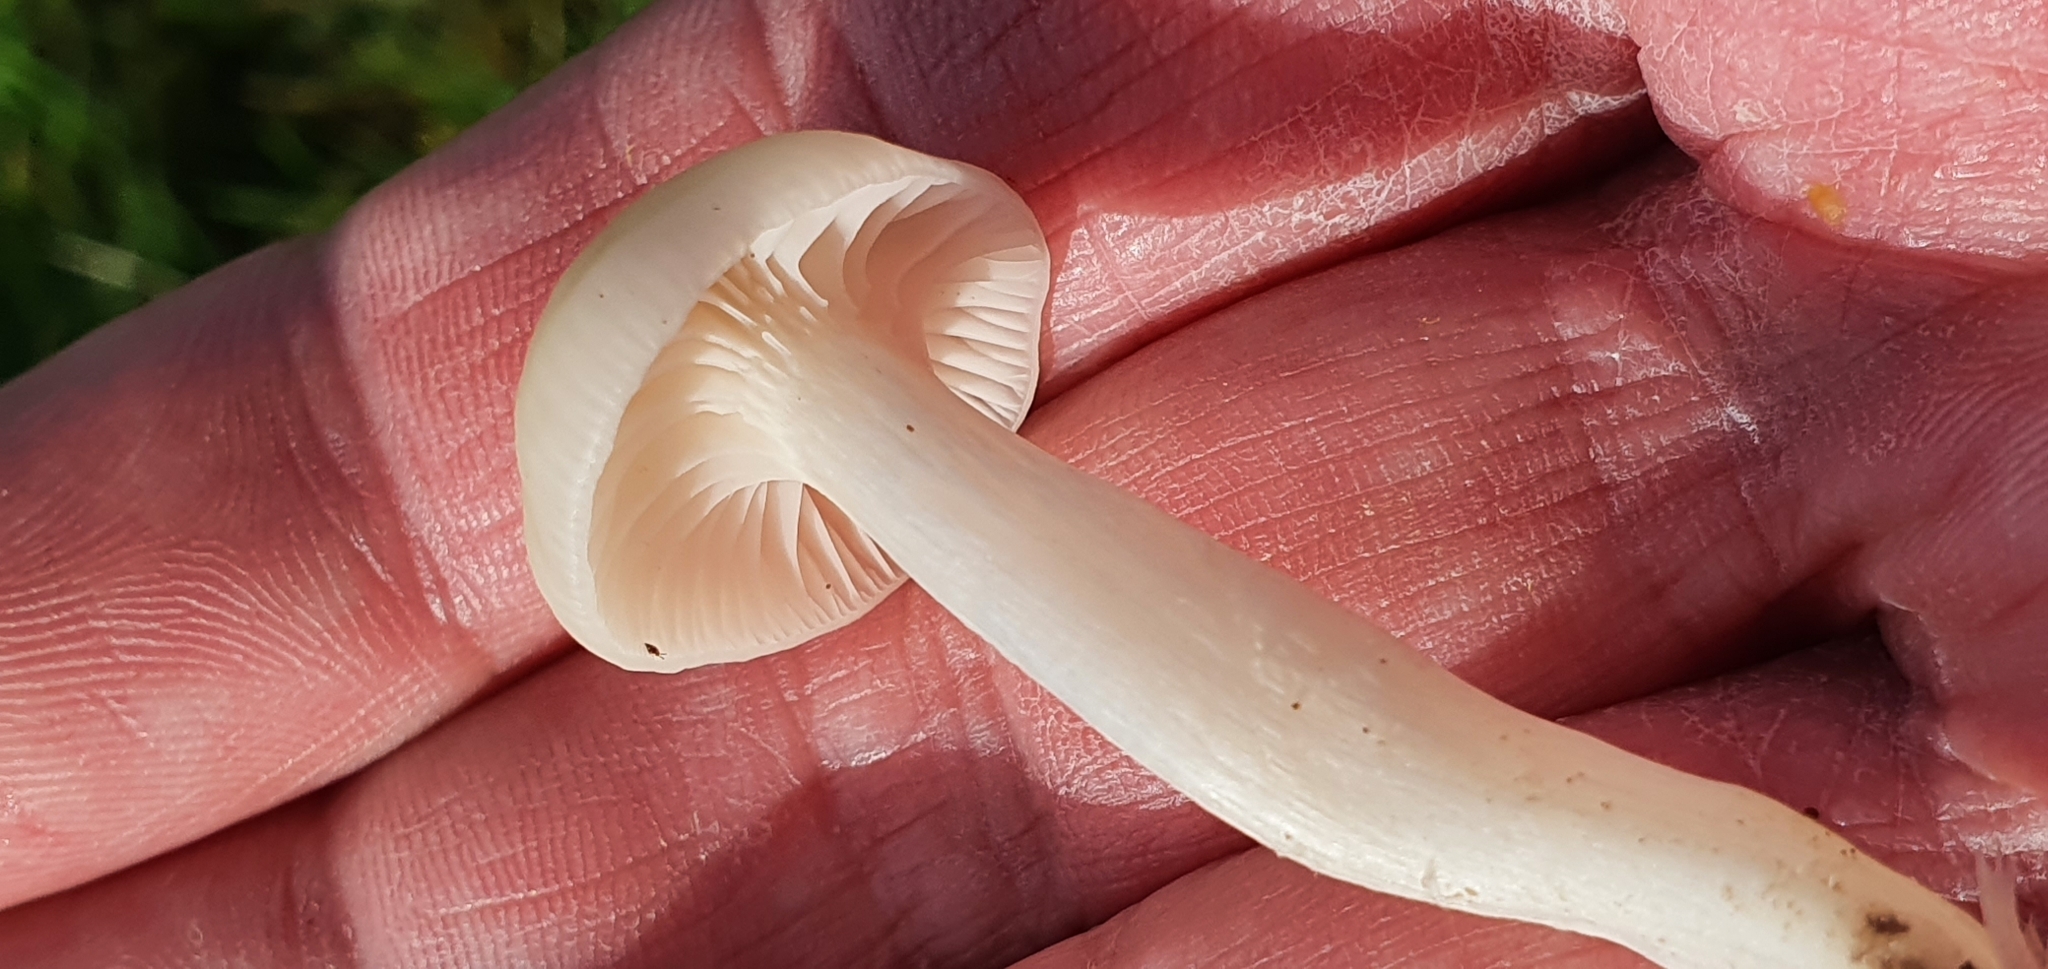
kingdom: Fungi
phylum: Basidiomycota
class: Agaricomycetes
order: Agaricales
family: Hygrophoraceae
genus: Cuphophyllus
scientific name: Cuphophyllus virgineus
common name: Snowy waxcap
